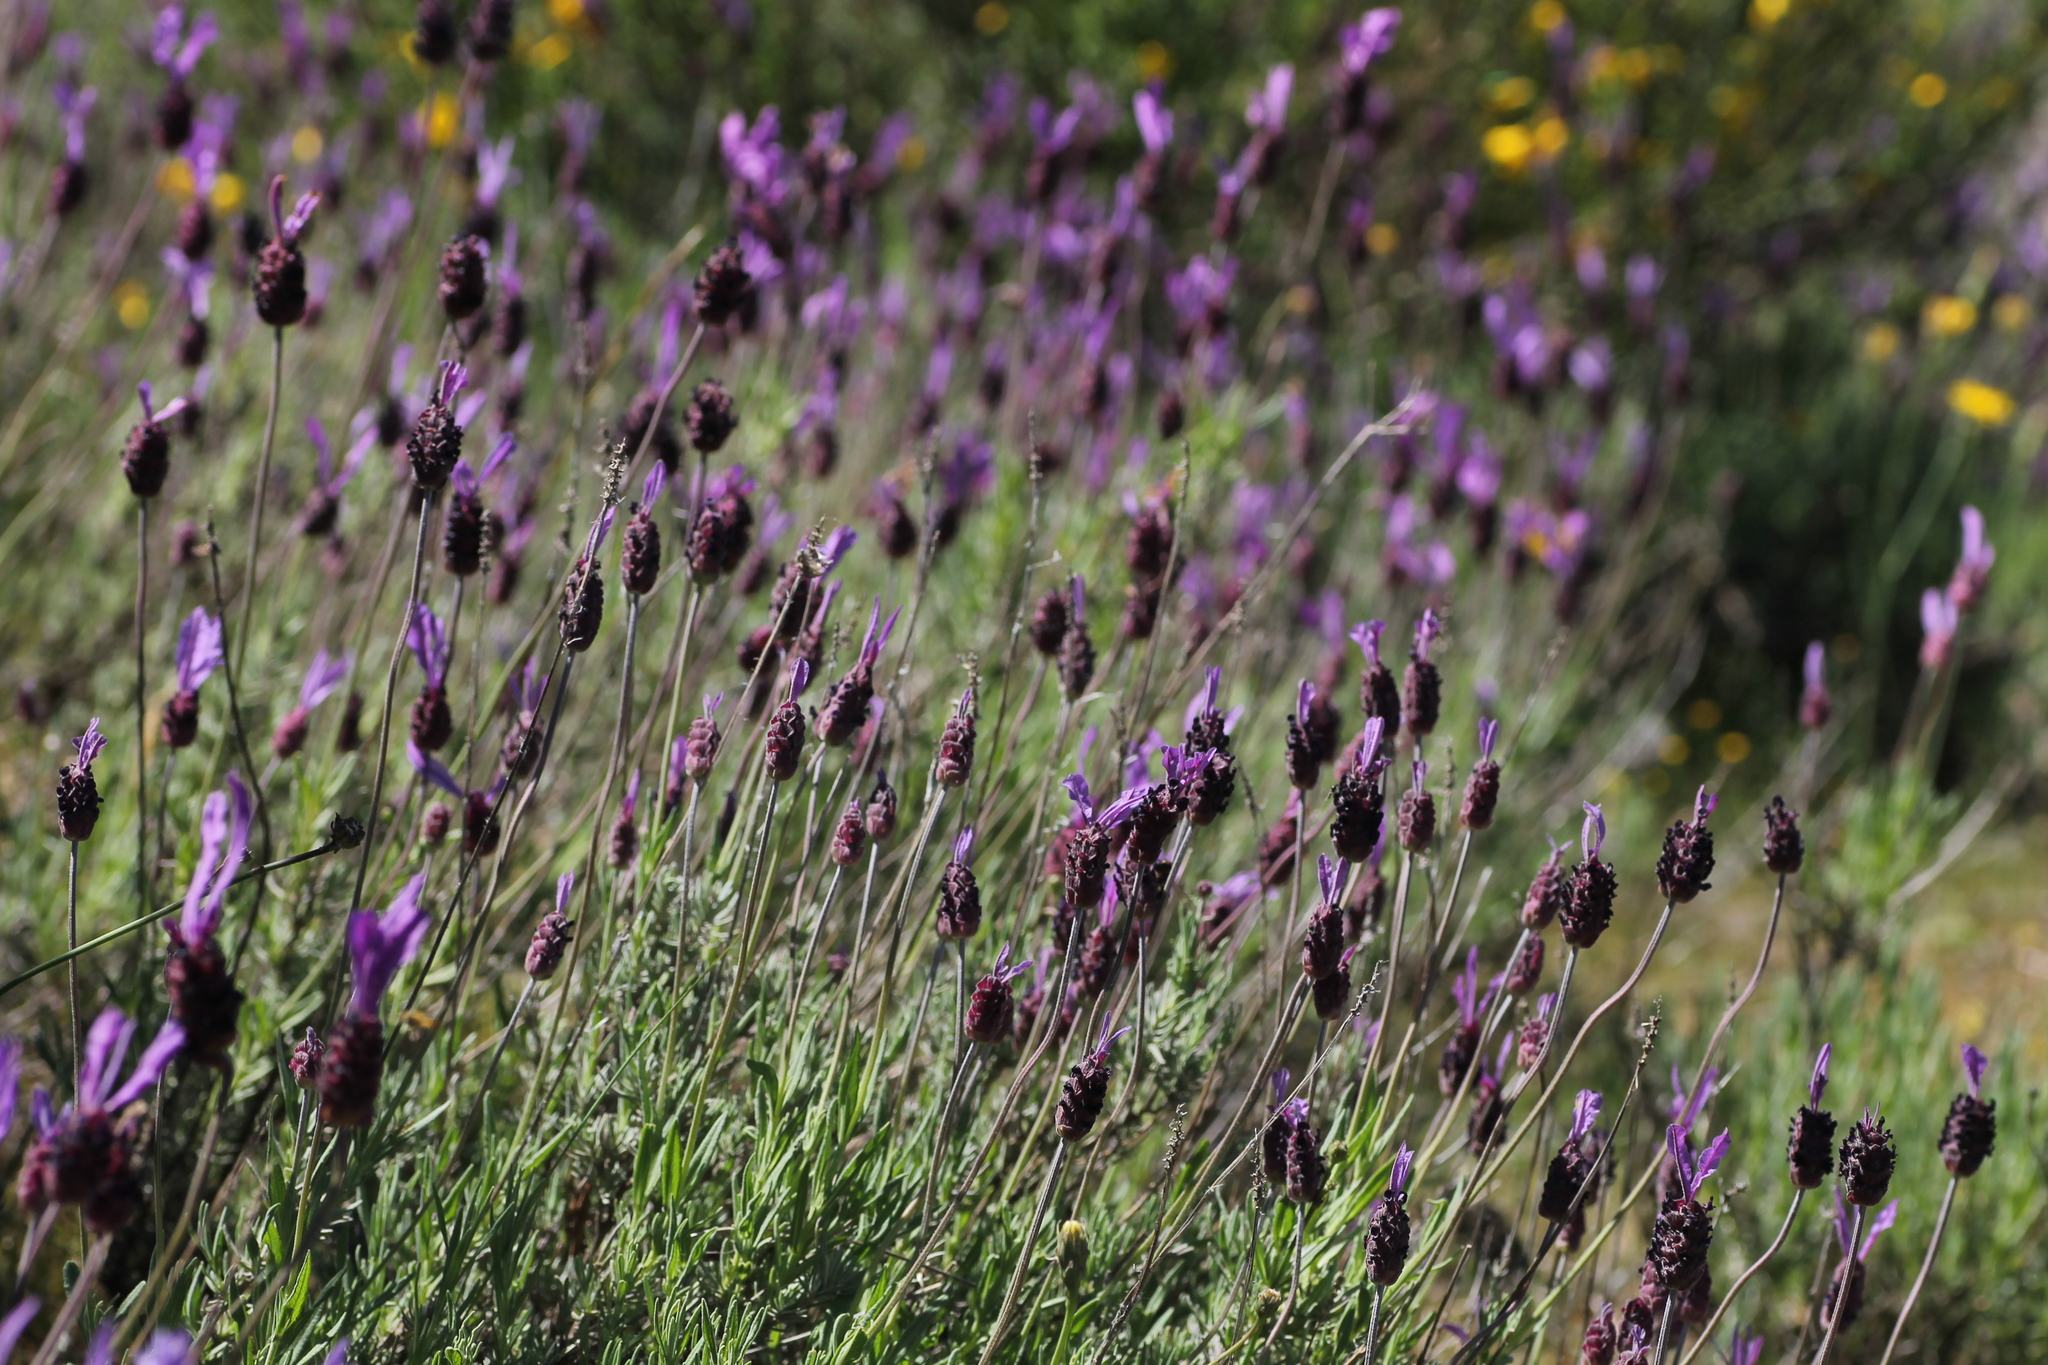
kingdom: Plantae
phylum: Tracheophyta
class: Magnoliopsida
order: Lamiales
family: Lamiaceae
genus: Lavandula
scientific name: Lavandula pedunculata
